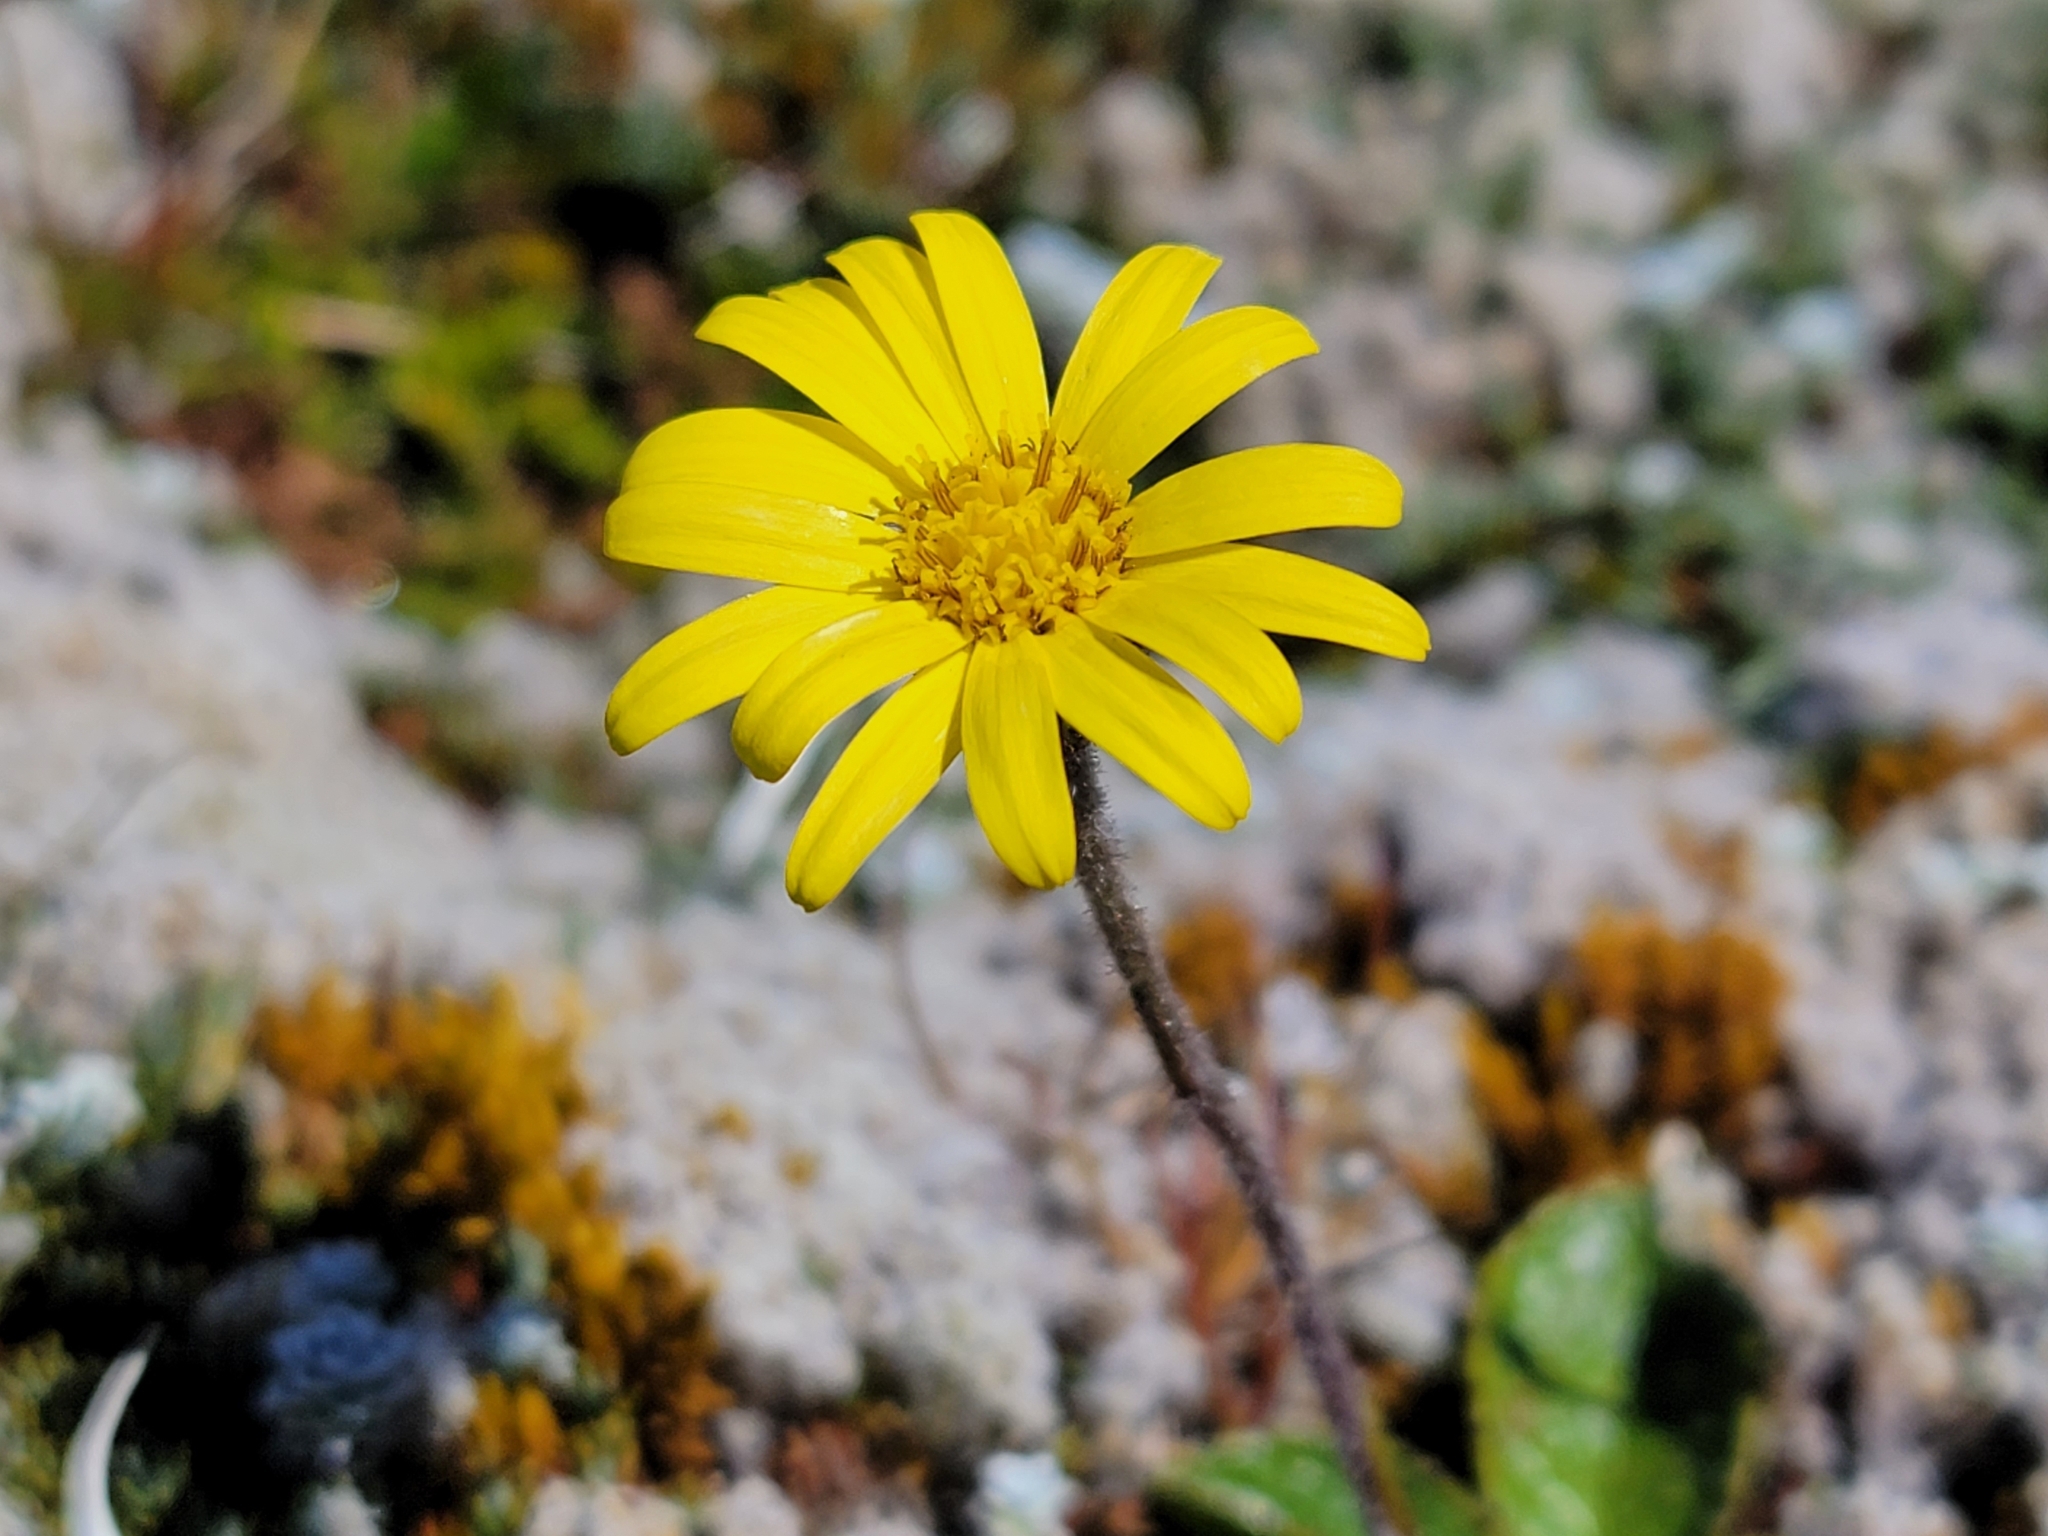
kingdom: Plantae
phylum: Tracheophyta
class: Magnoliopsida
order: Asterales
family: Asteraceae
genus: Brachyglottis
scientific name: Brachyglottis bellidioides
